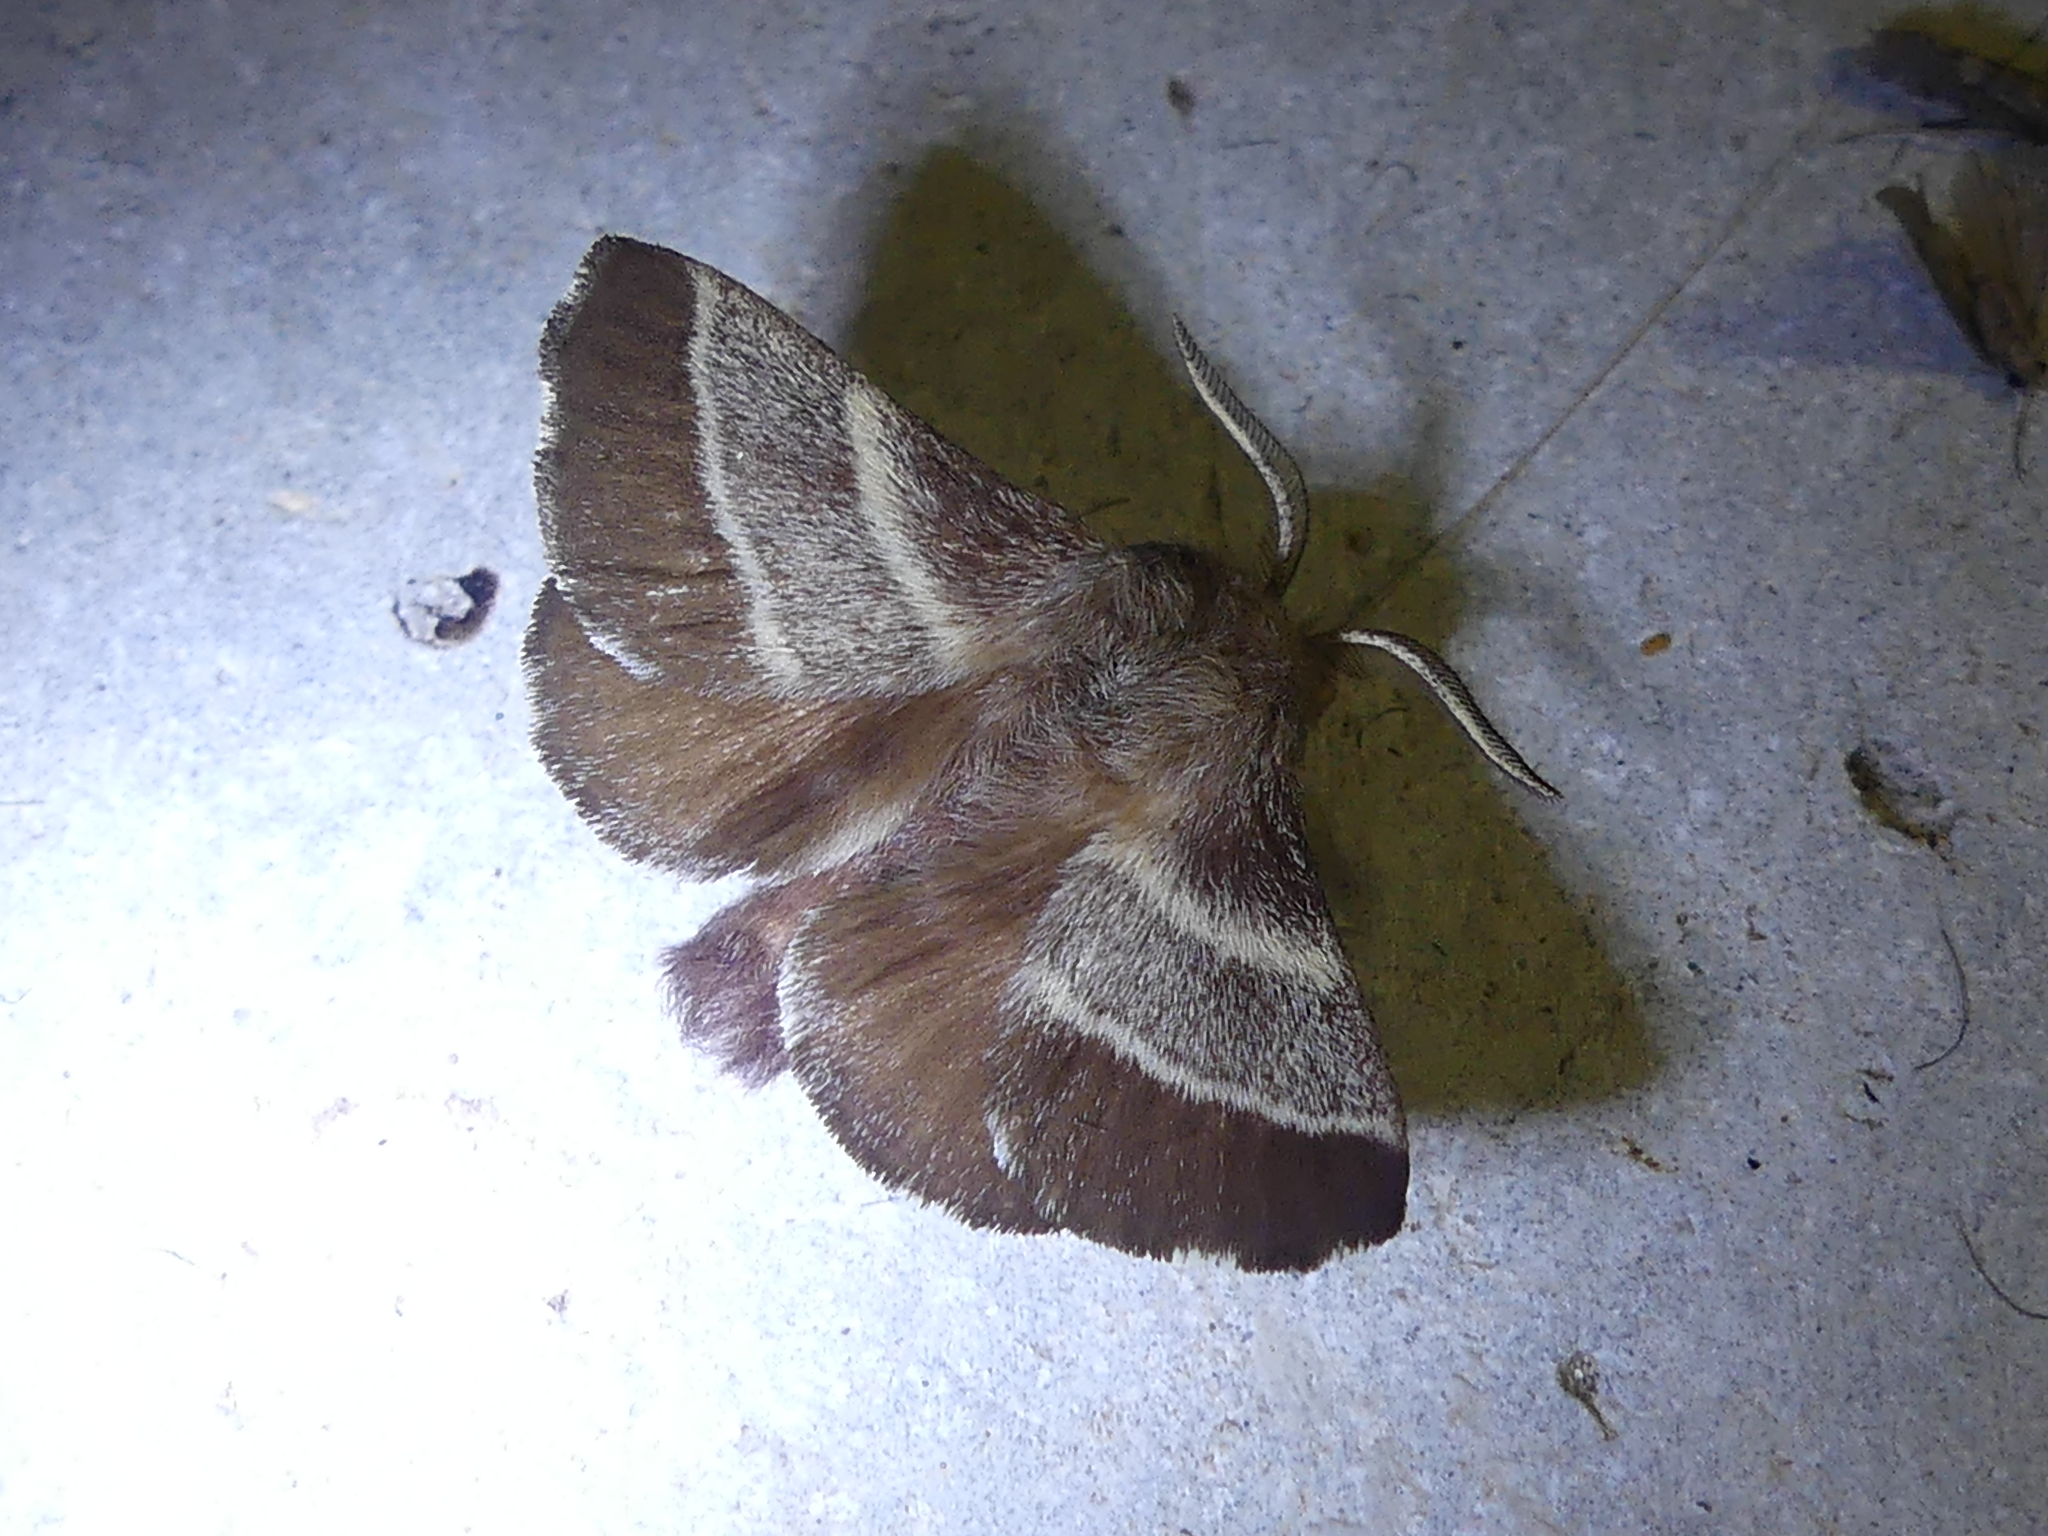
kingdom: Animalia
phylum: Arthropoda
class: Insecta
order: Lepidoptera
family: Lasiocampidae
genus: Malacosoma
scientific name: Malacosoma americana
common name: Eastern tent caterpillar moth
